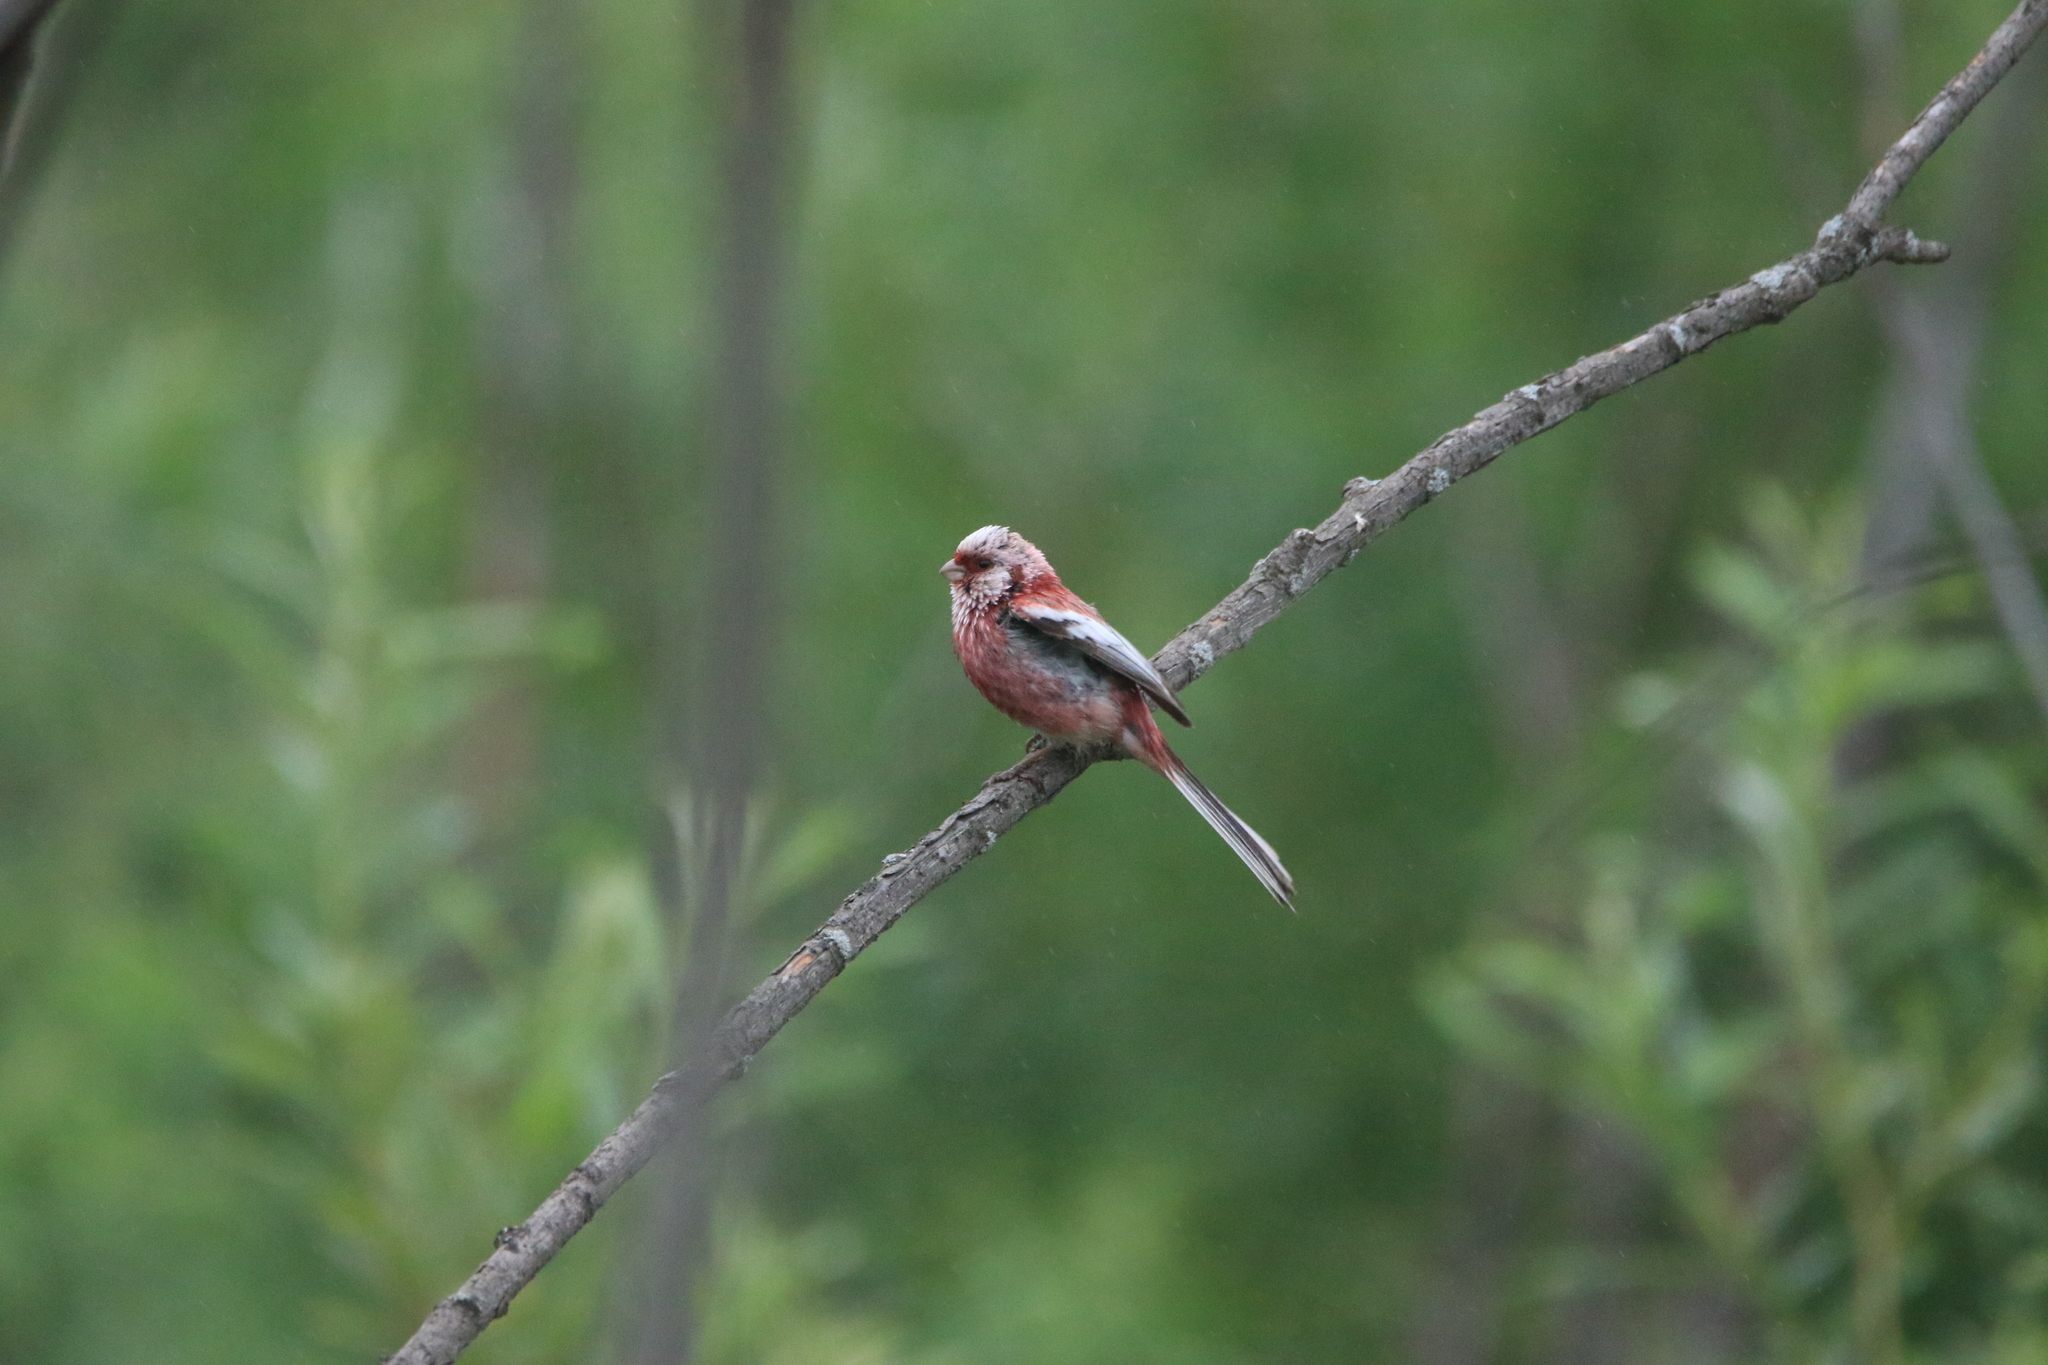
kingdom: Animalia
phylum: Chordata
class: Aves
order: Passeriformes
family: Fringillidae
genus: Carpodacus
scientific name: Carpodacus sibiricus
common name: Long-tailed rosefinch
